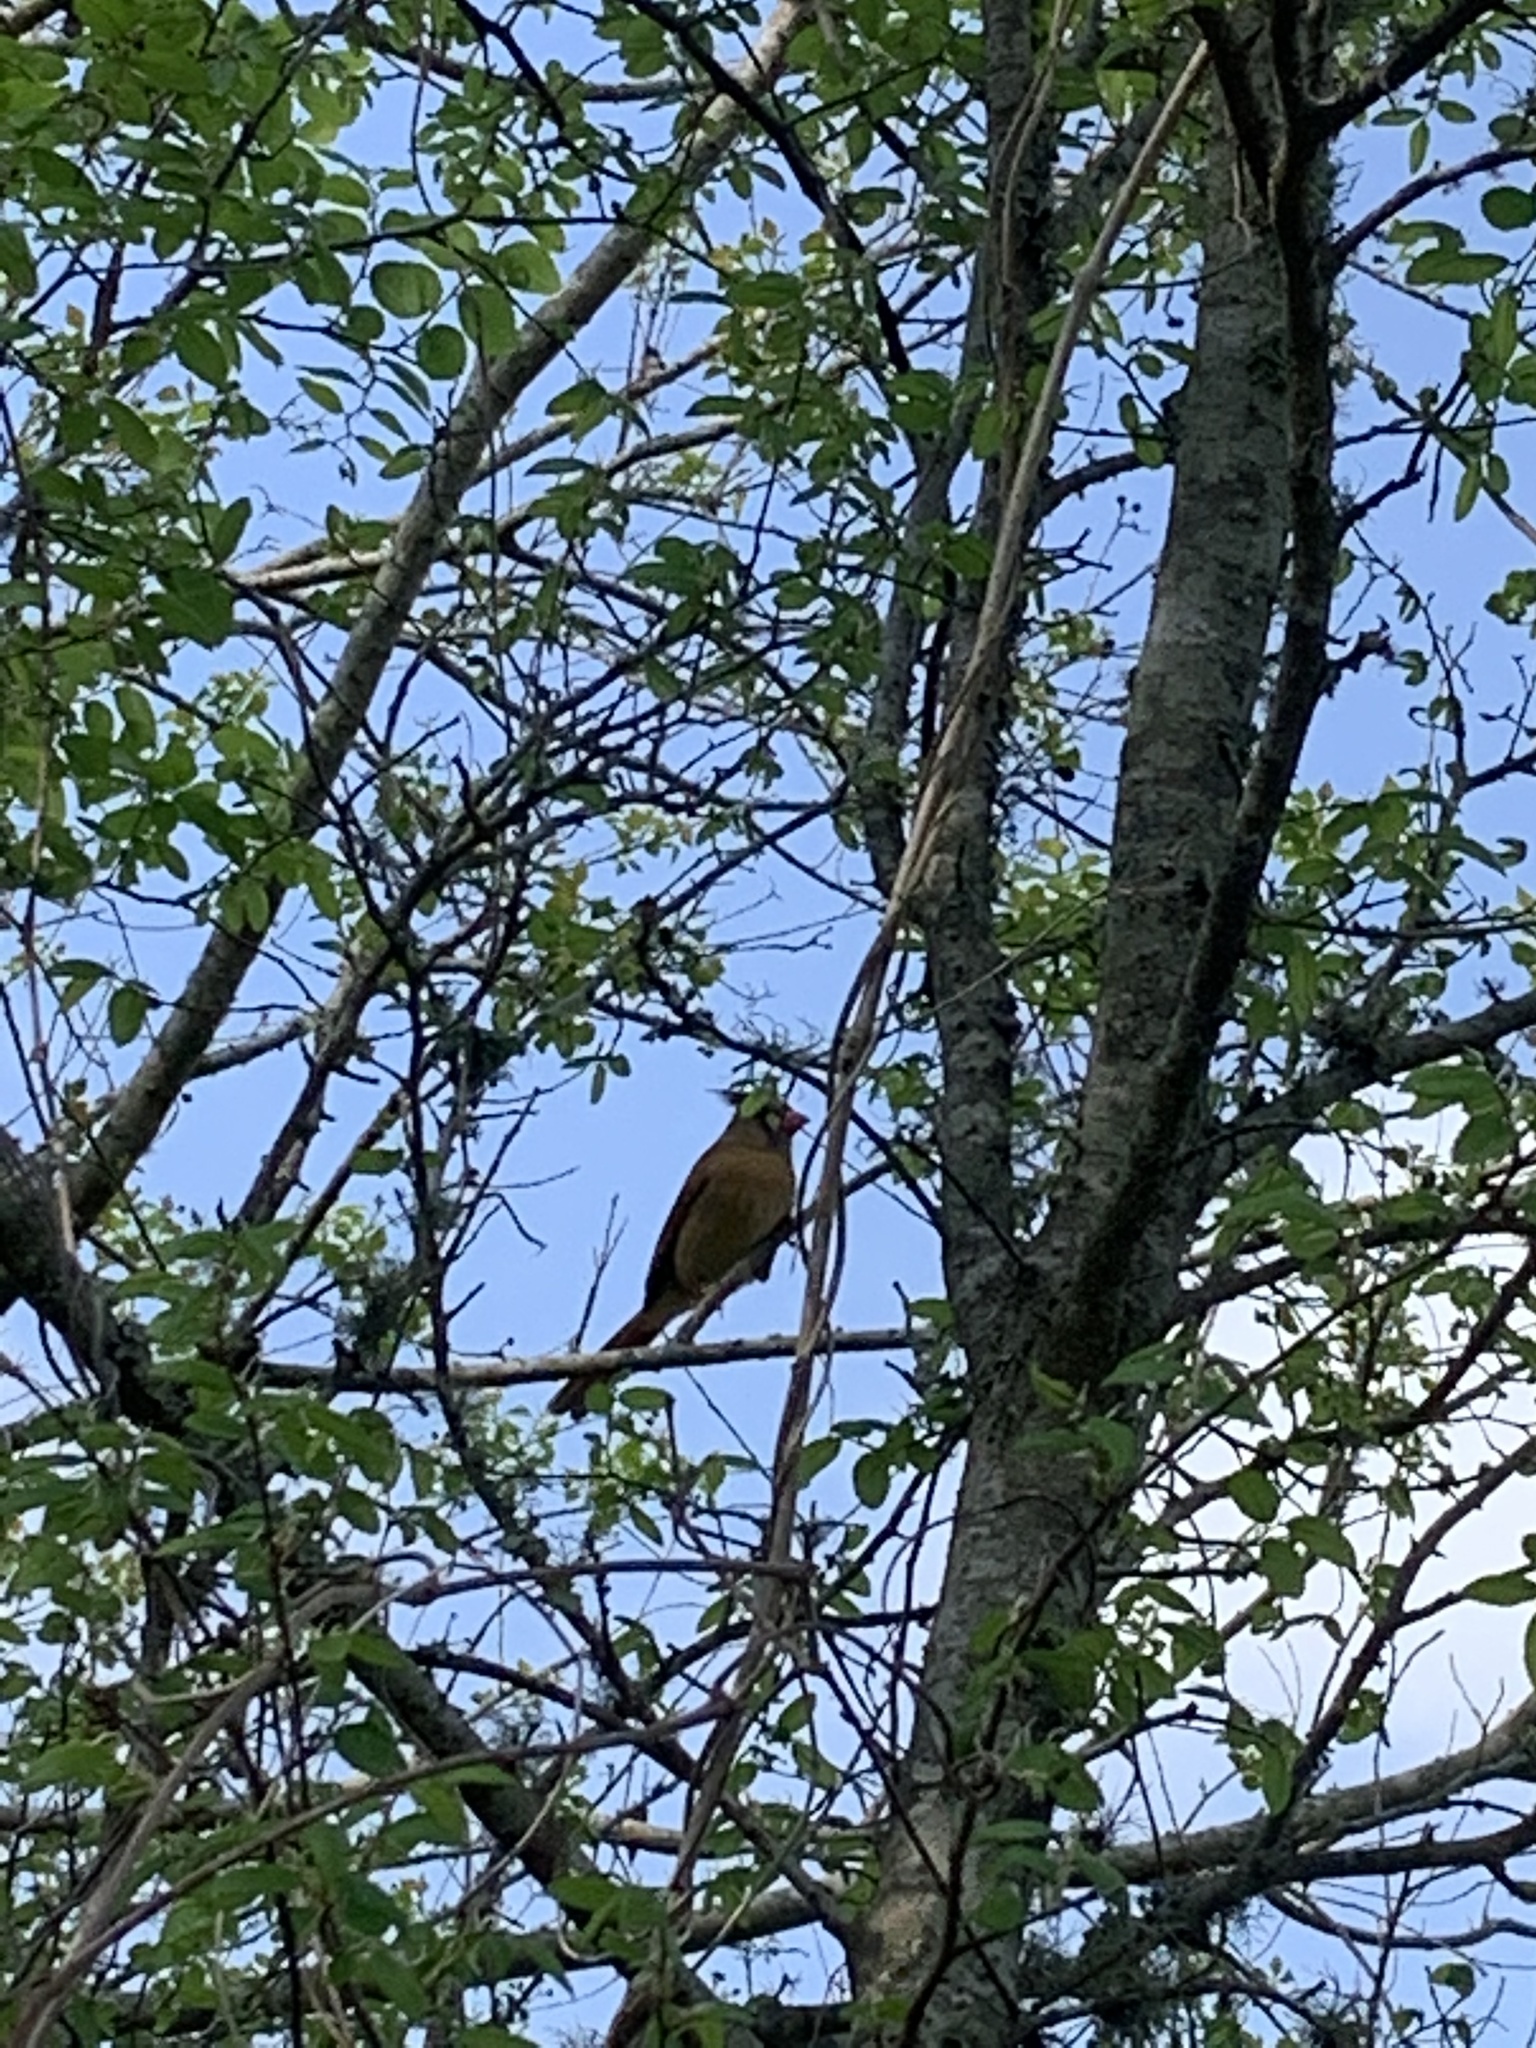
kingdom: Animalia
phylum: Chordata
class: Aves
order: Passeriformes
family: Cardinalidae
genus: Cardinalis
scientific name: Cardinalis cardinalis
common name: Northern cardinal
